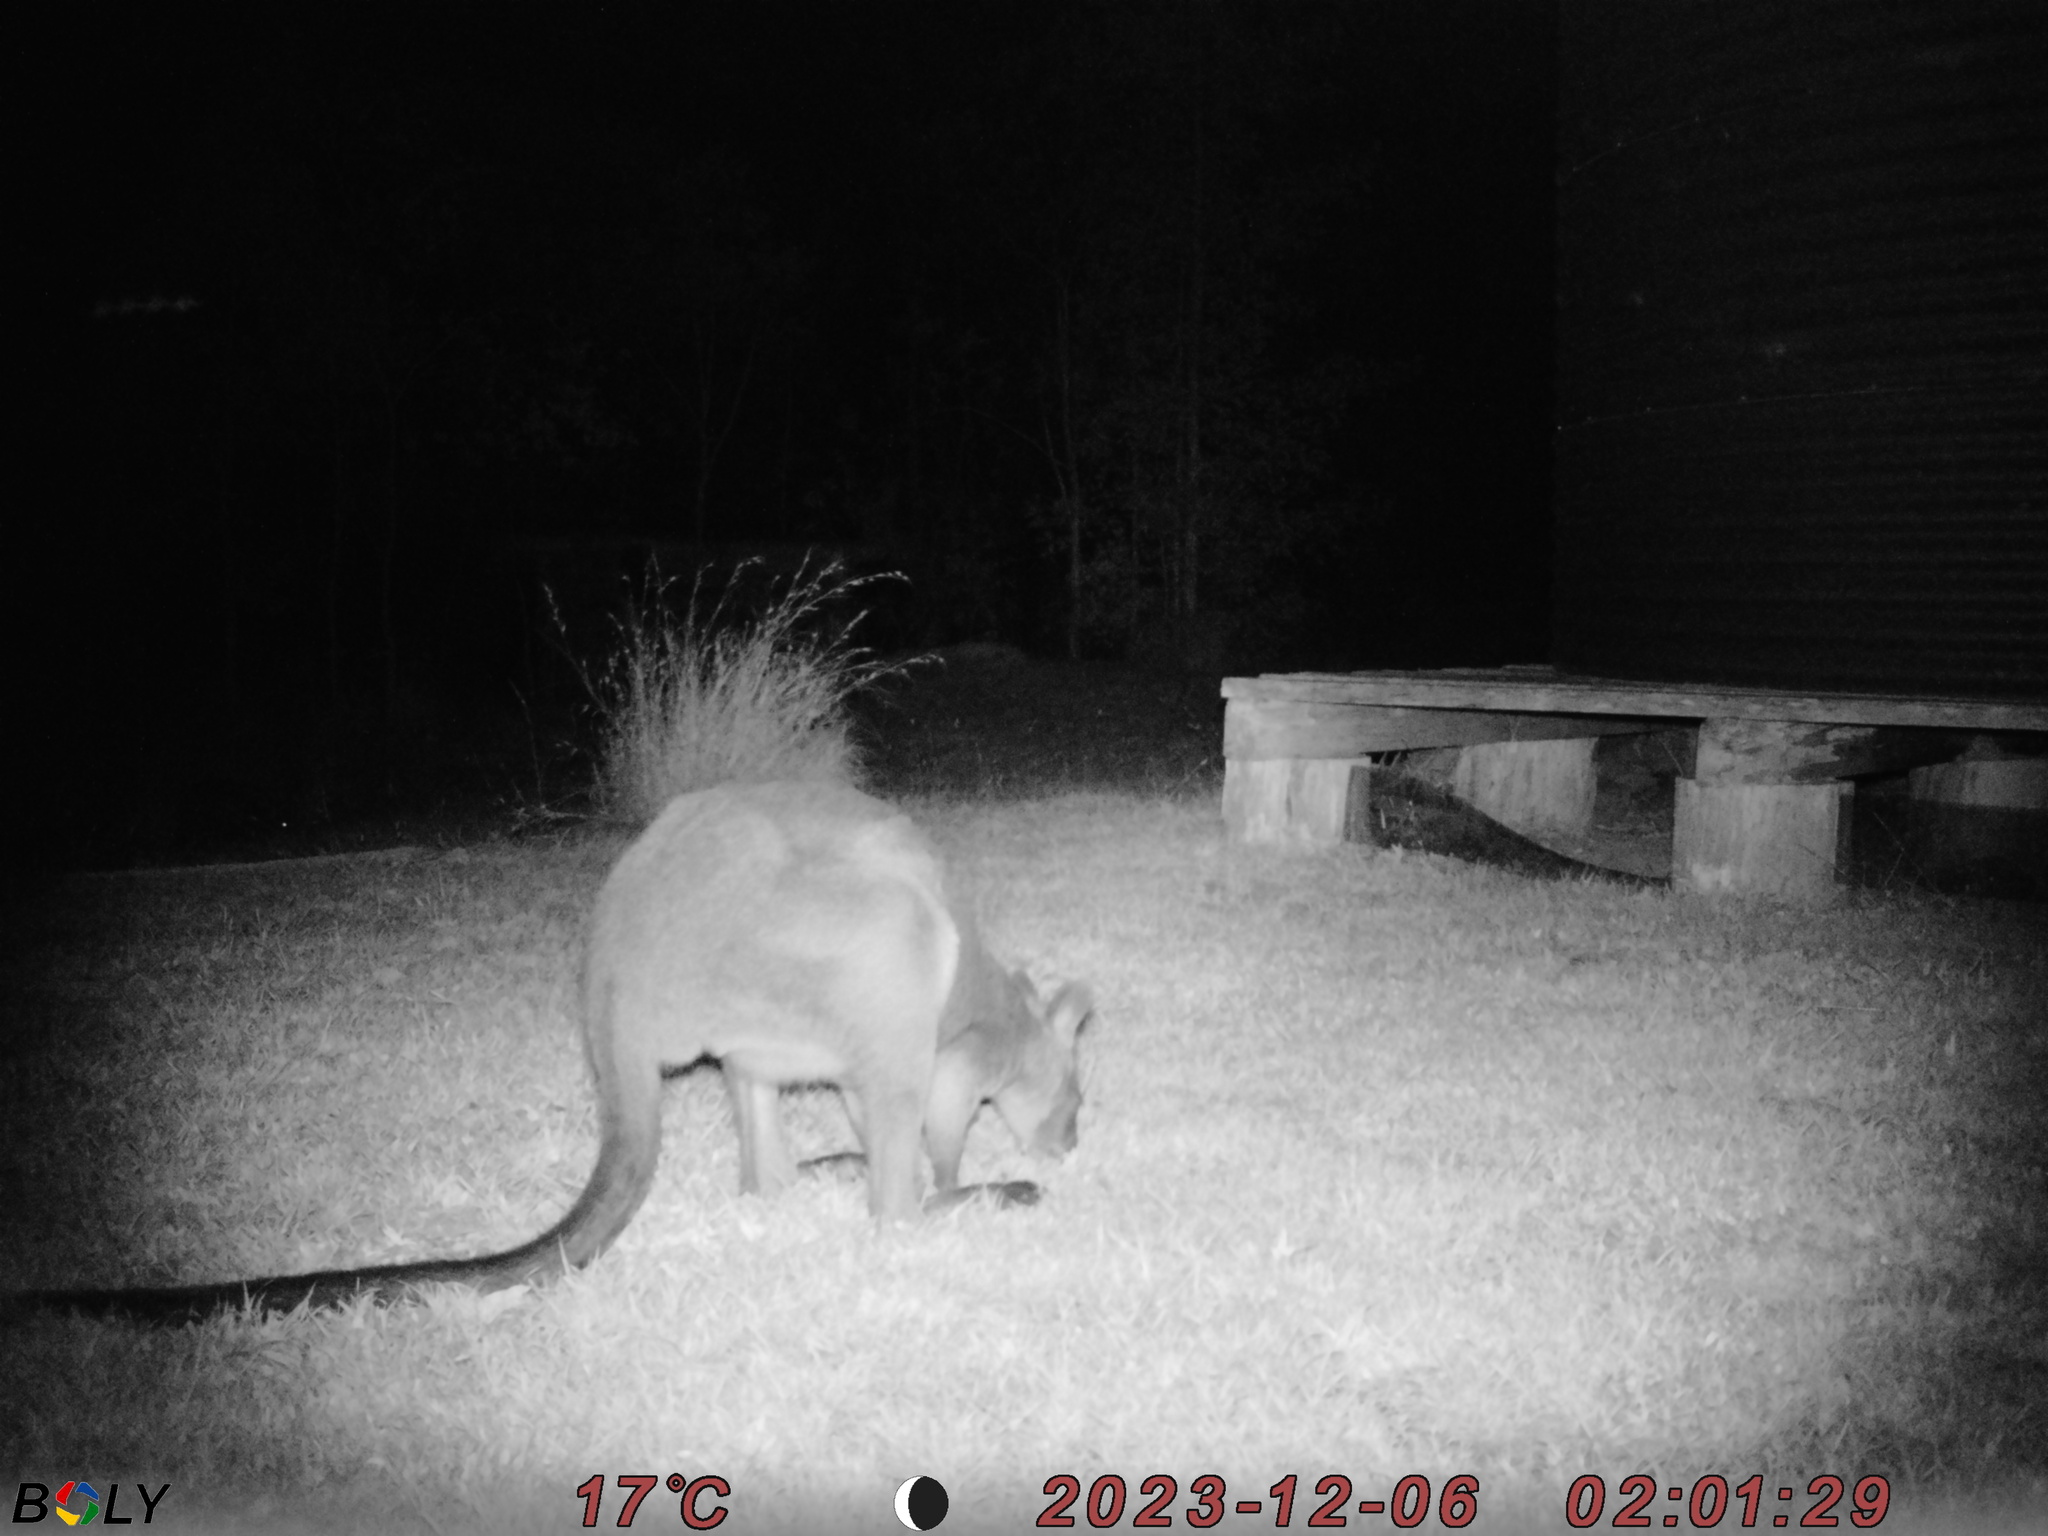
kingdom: Animalia
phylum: Chordata
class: Mammalia
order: Diprotodontia
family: Macropodidae
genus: Wallabia
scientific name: Wallabia bicolor
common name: Swamp wallaby
